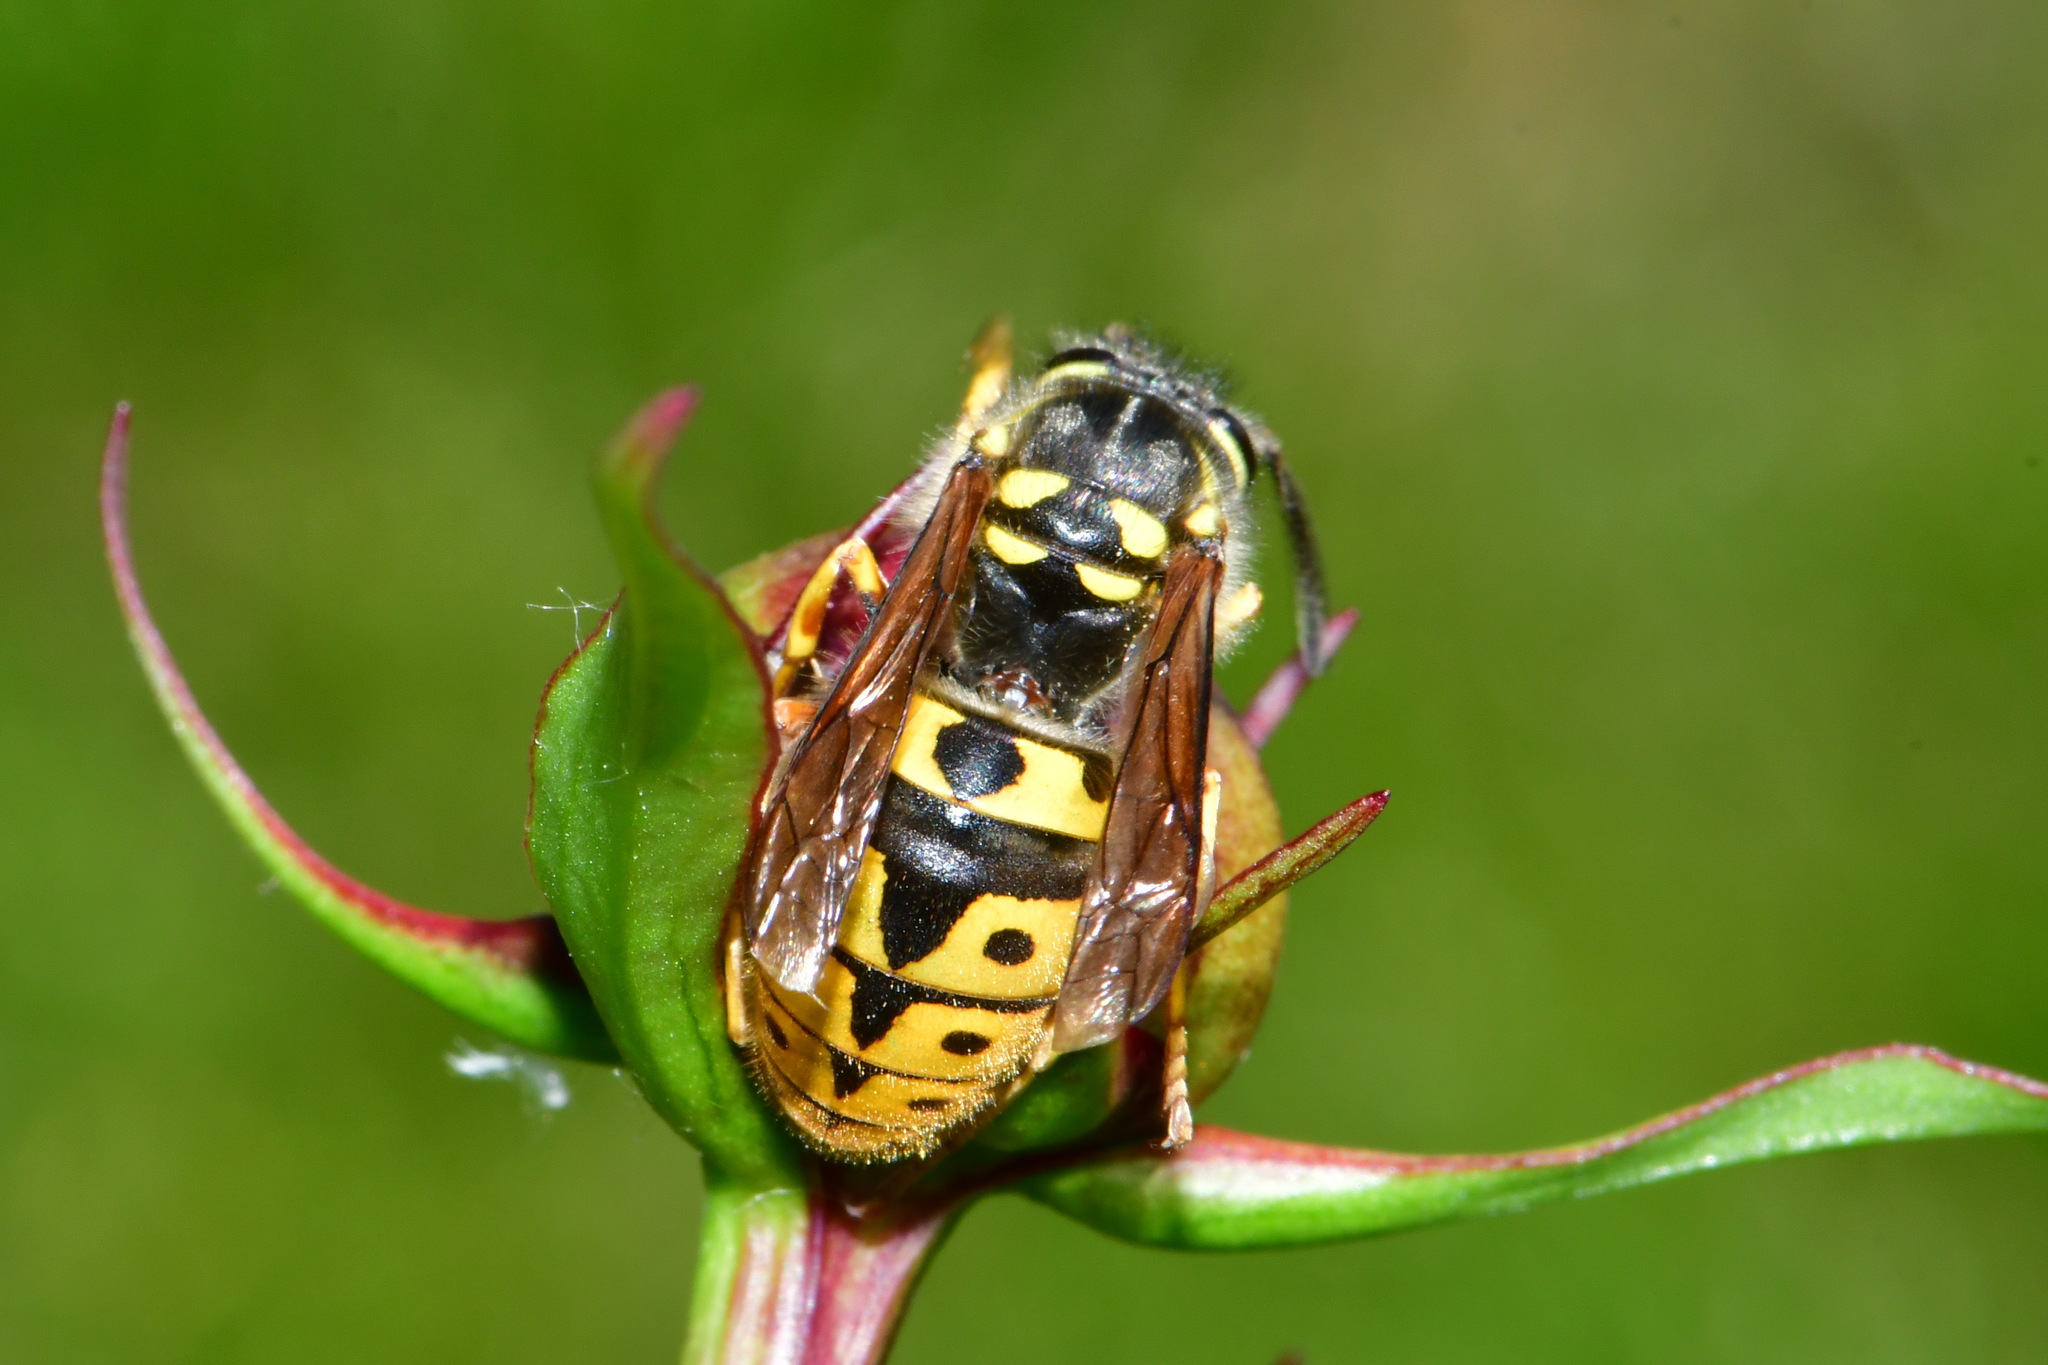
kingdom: Animalia
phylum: Arthropoda
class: Insecta
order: Hymenoptera
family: Vespidae
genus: Vespula
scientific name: Vespula germanica
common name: German wasp
